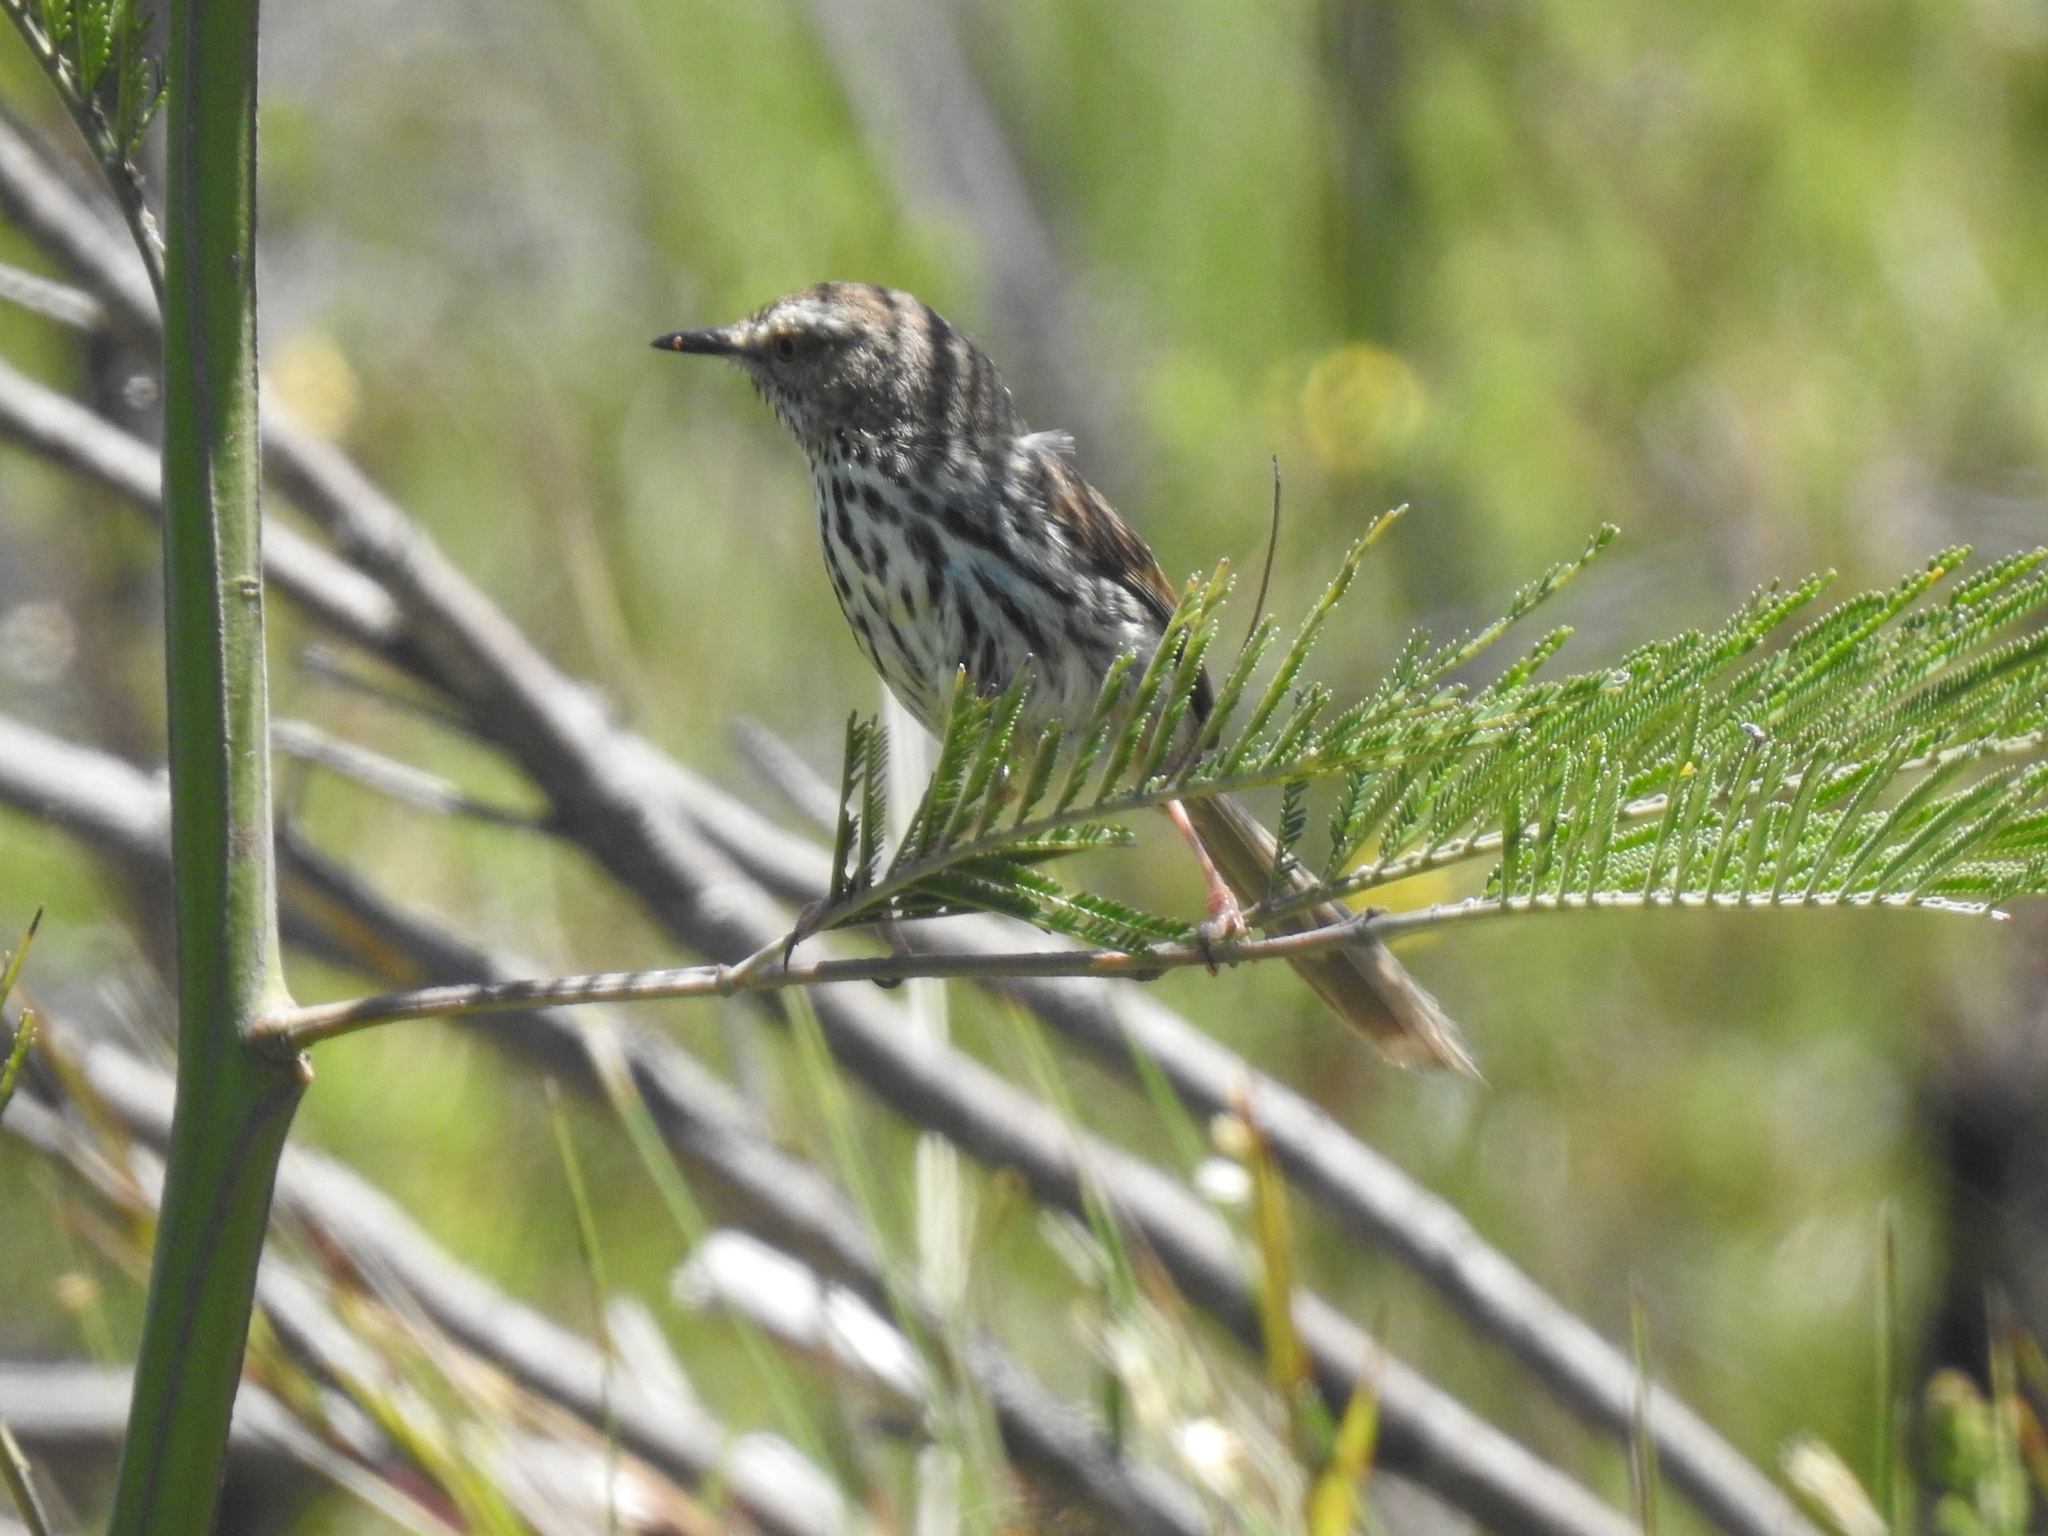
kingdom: Animalia
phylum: Chordata
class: Aves
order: Passeriformes
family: Cisticolidae
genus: Prinia
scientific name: Prinia maculosa
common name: Karoo prinia
